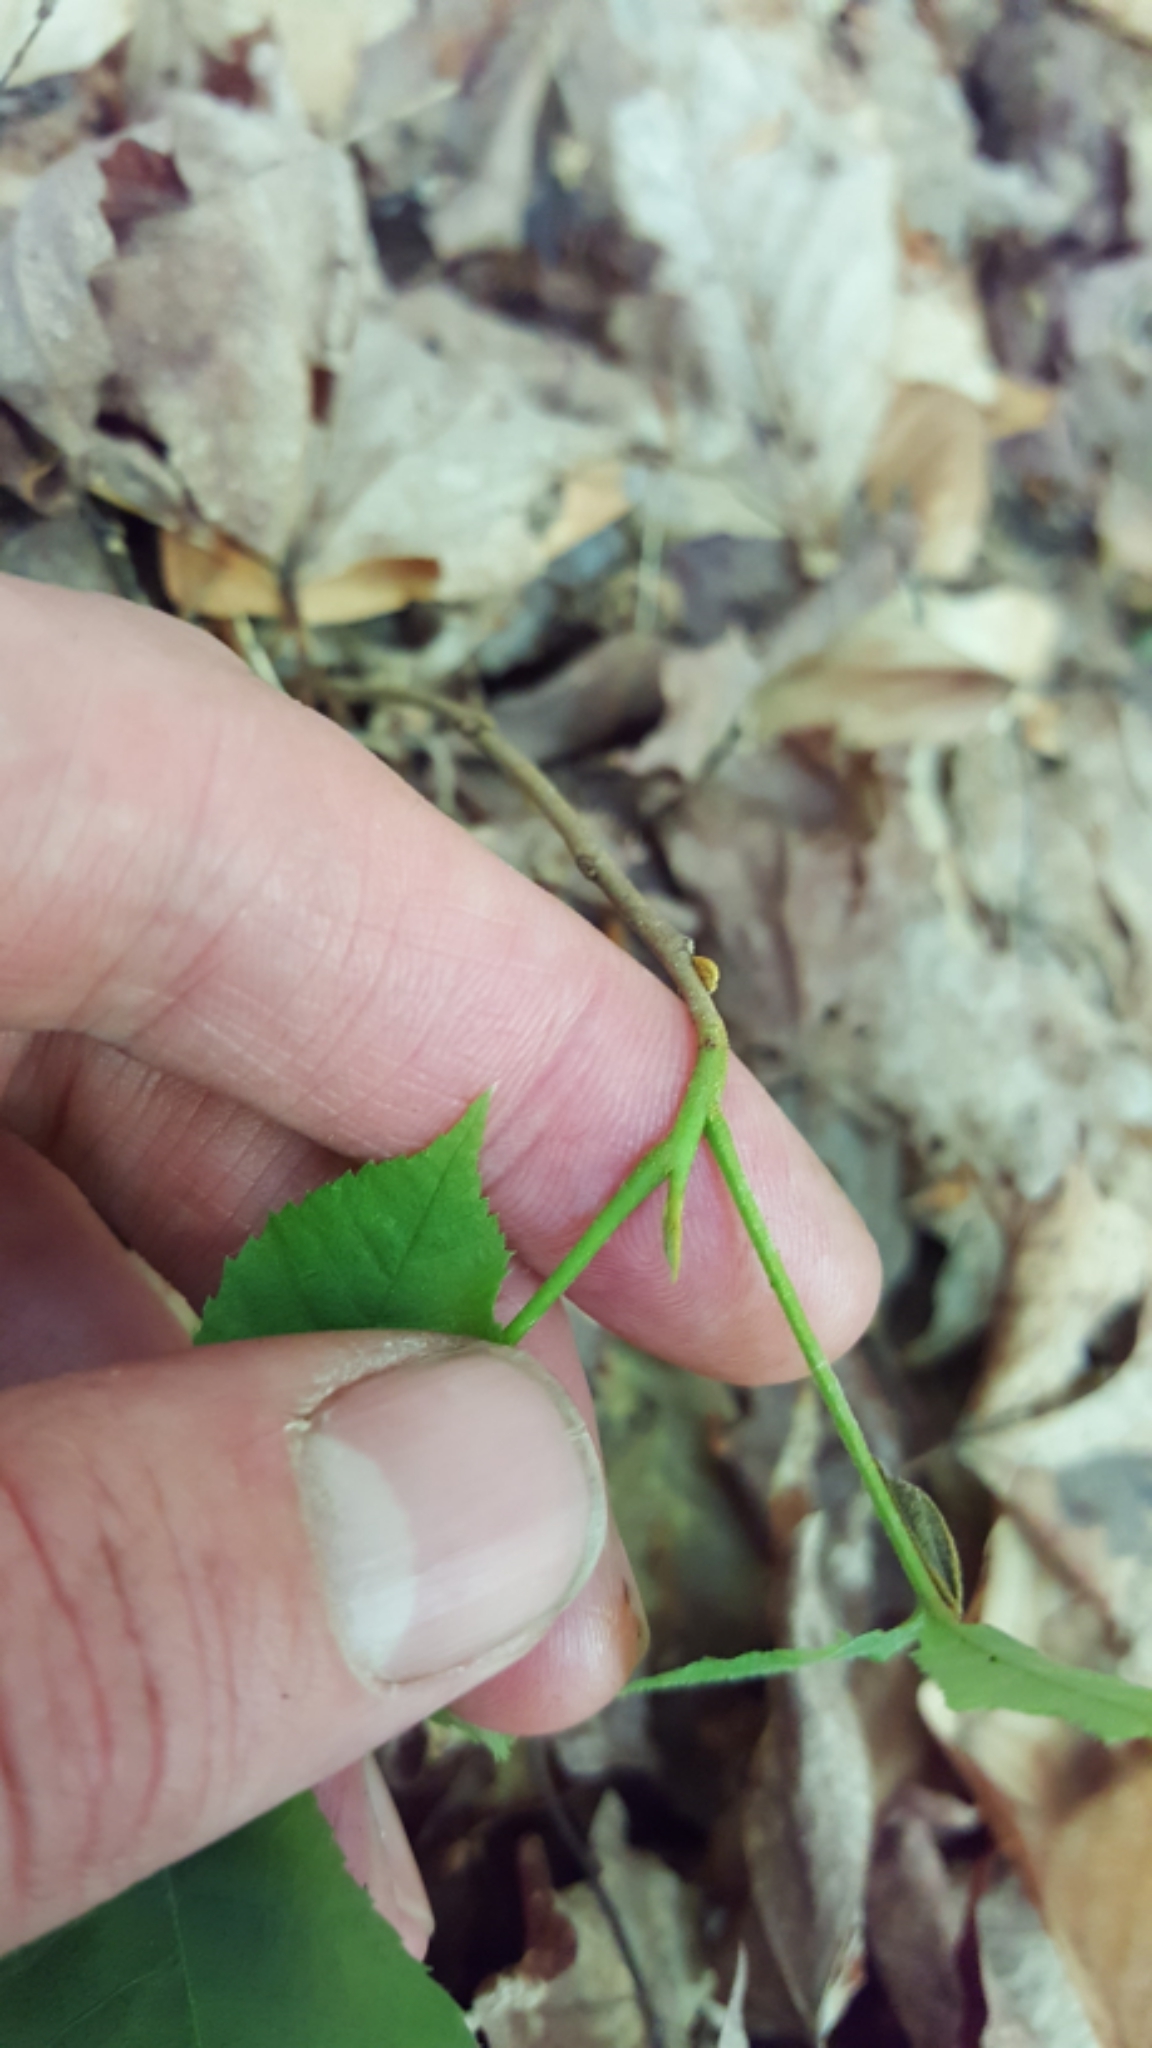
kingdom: Plantae
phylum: Tracheophyta
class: Magnoliopsida
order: Fagales
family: Juglandaceae
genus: Carya
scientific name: Carya cordiformis
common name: Bitternut hickory
